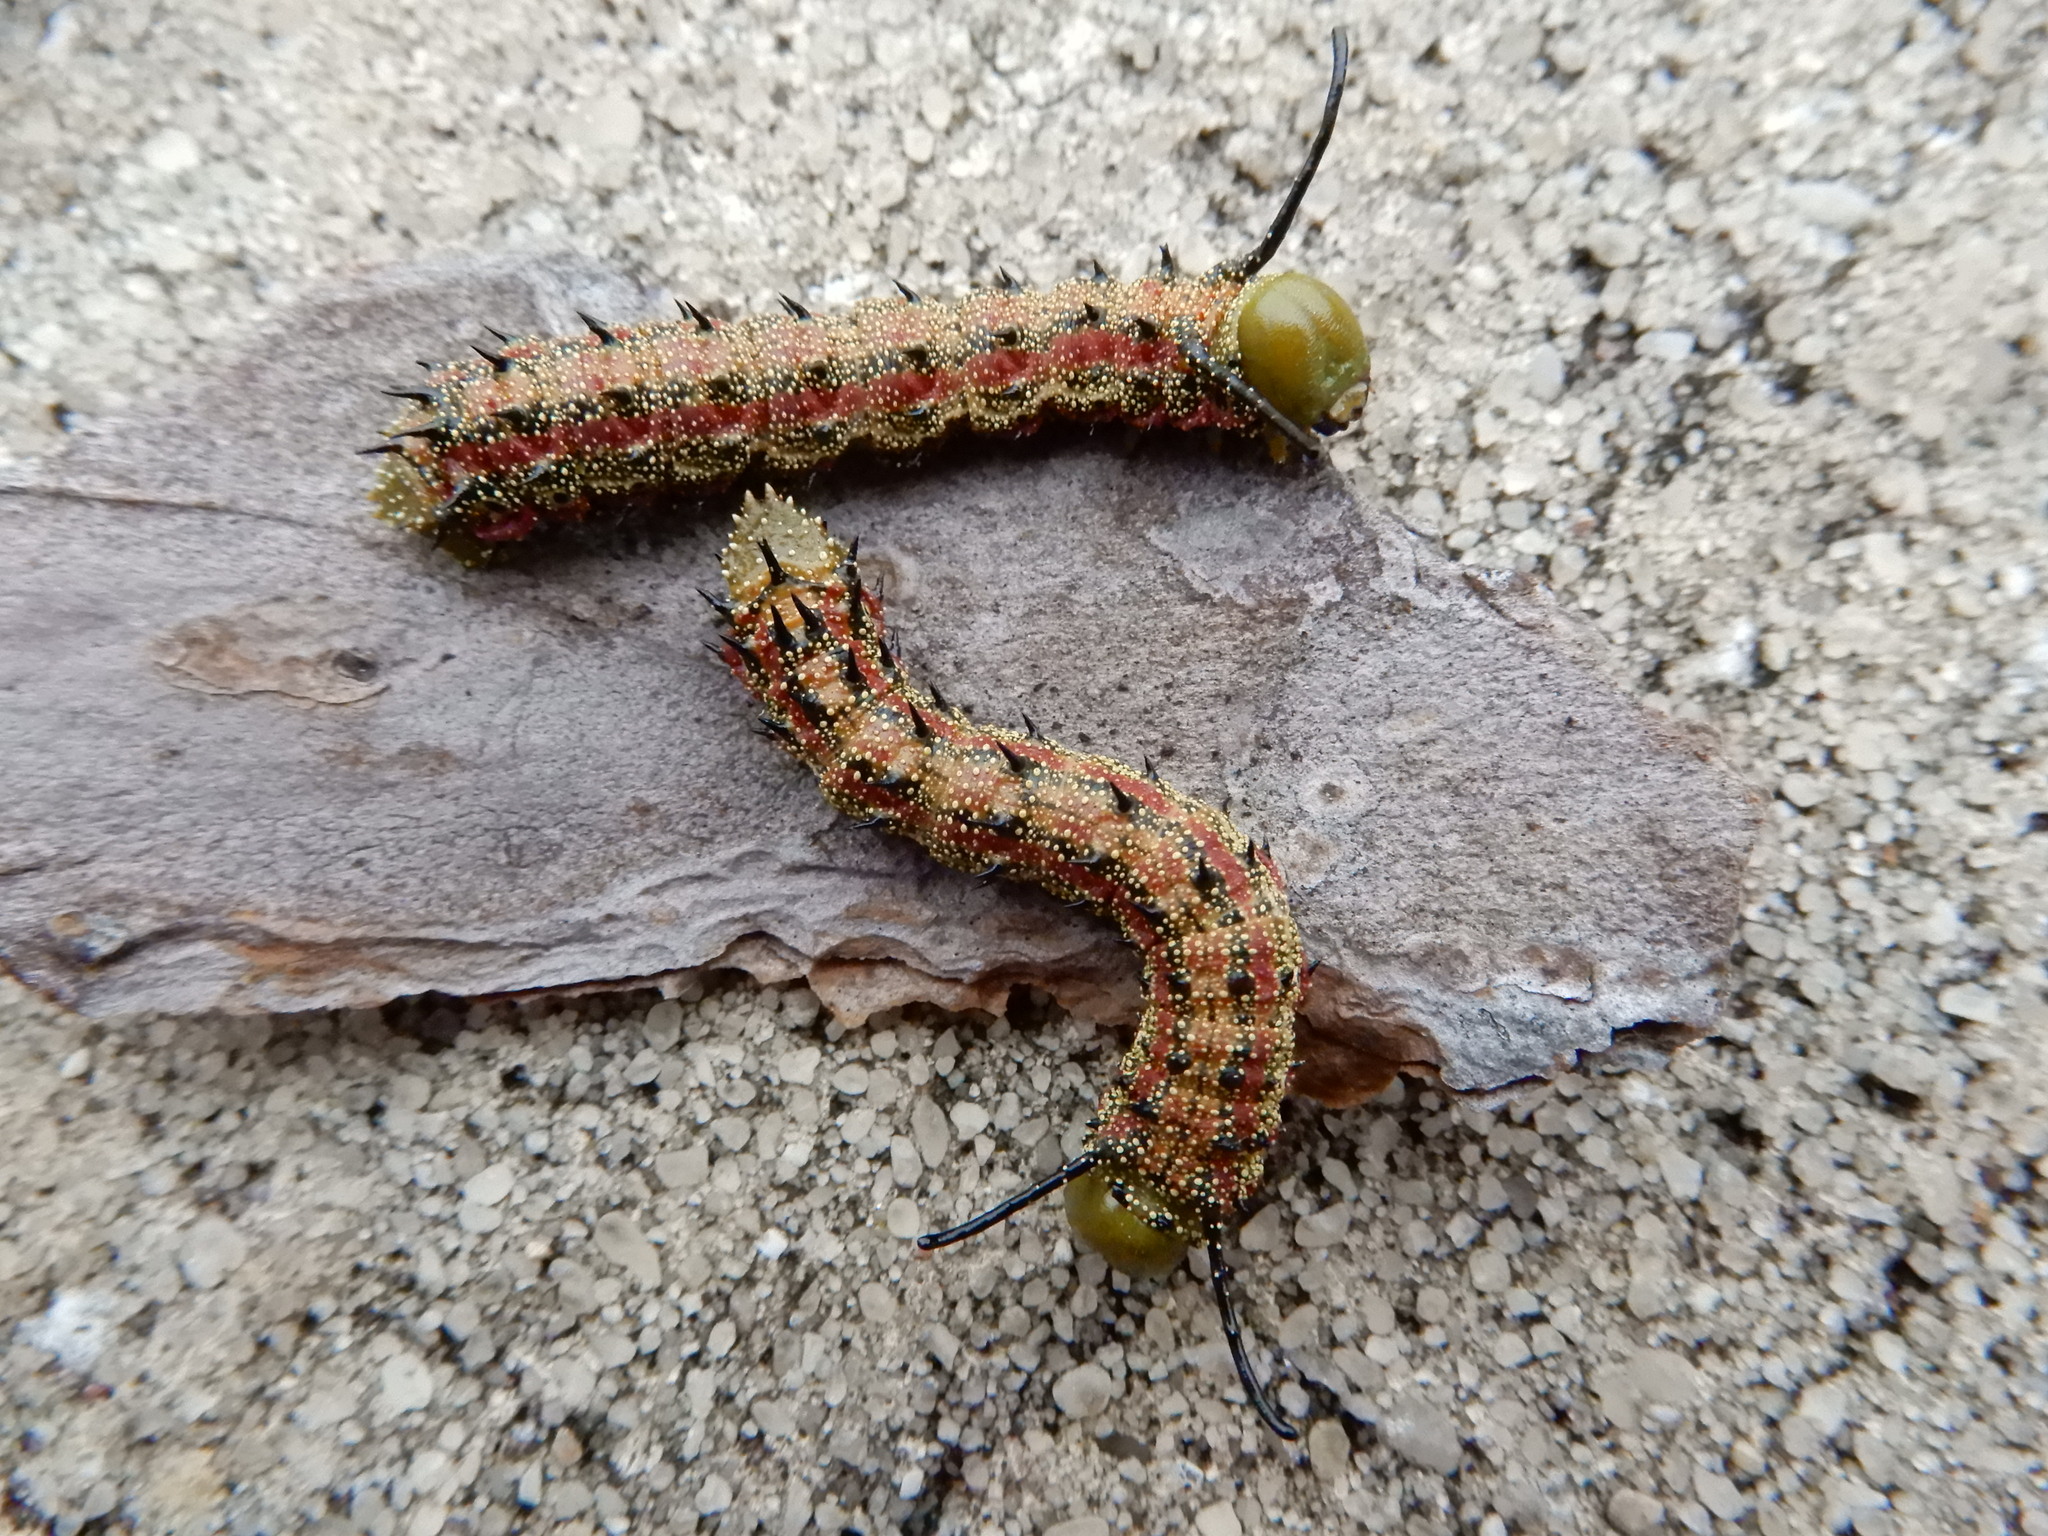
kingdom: Animalia
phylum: Arthropoda
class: Insecta
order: Lepidoptera
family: Saturniidae
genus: Anisota
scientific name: Anisota virginiensis
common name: Pink striped oakworm moth
